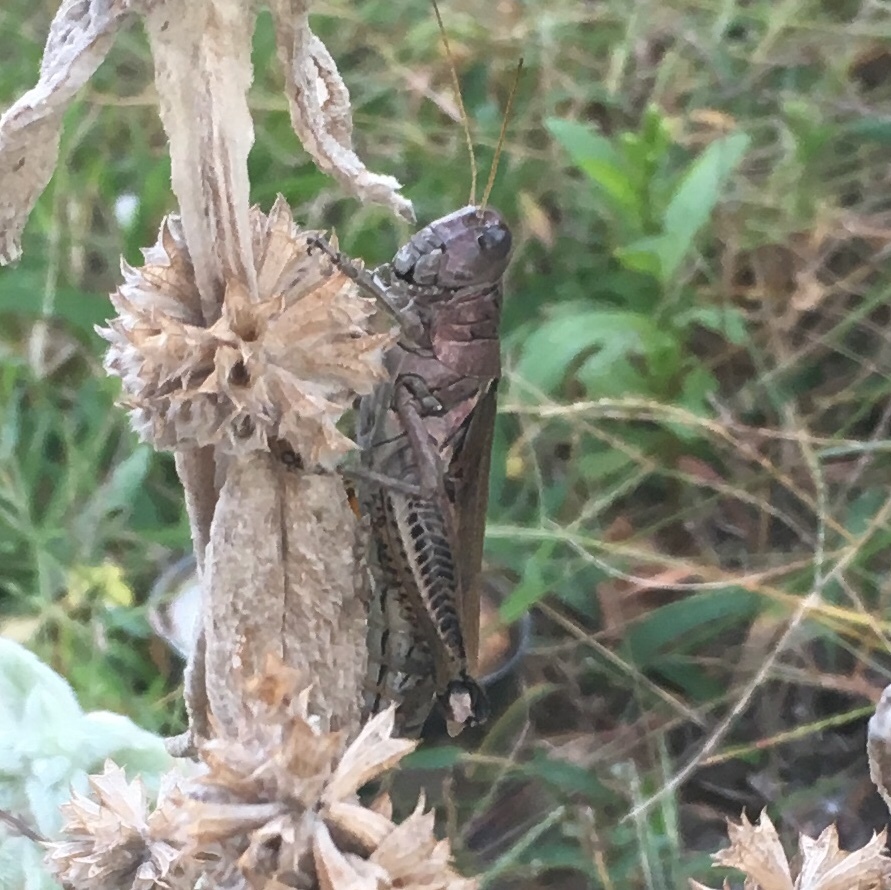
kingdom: Animalia
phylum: Arthropoda
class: Insecta
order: Orthoptera
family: Acrididae
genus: Melanoplus
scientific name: Melanoplus differentialis
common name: Differential grasshopper
